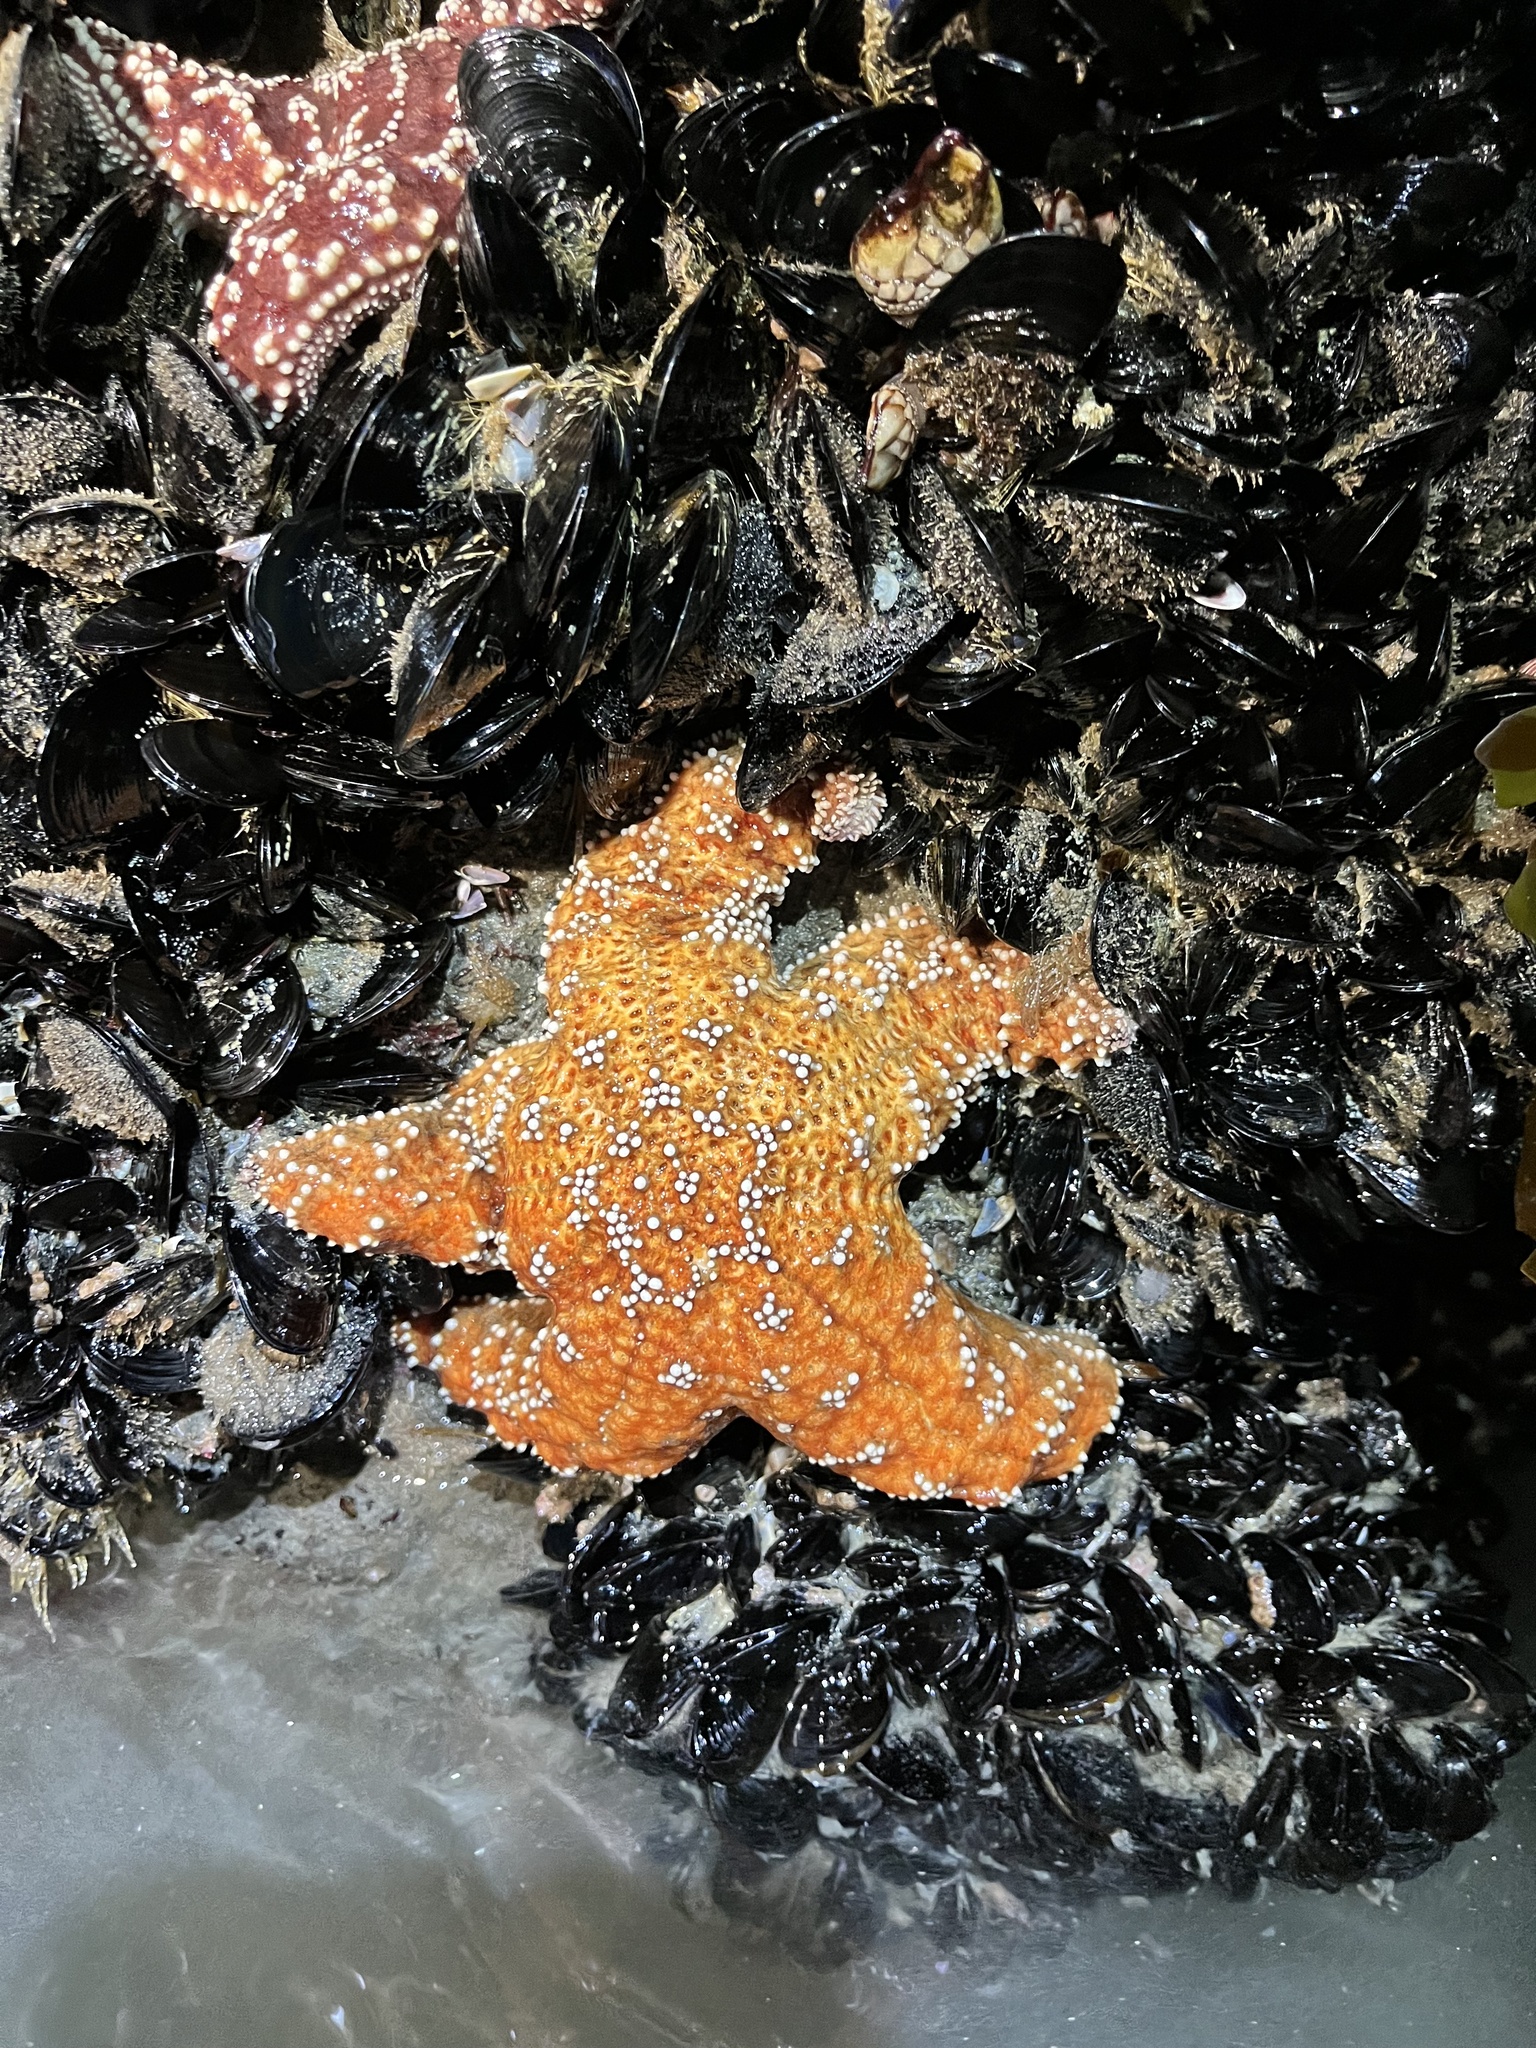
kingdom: Animalia
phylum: Echinodermata
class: Asteroidea
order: Forcipulatida
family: Asteriidae
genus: Pisaster
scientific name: Pisaster ochraceus
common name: Ochre stars
